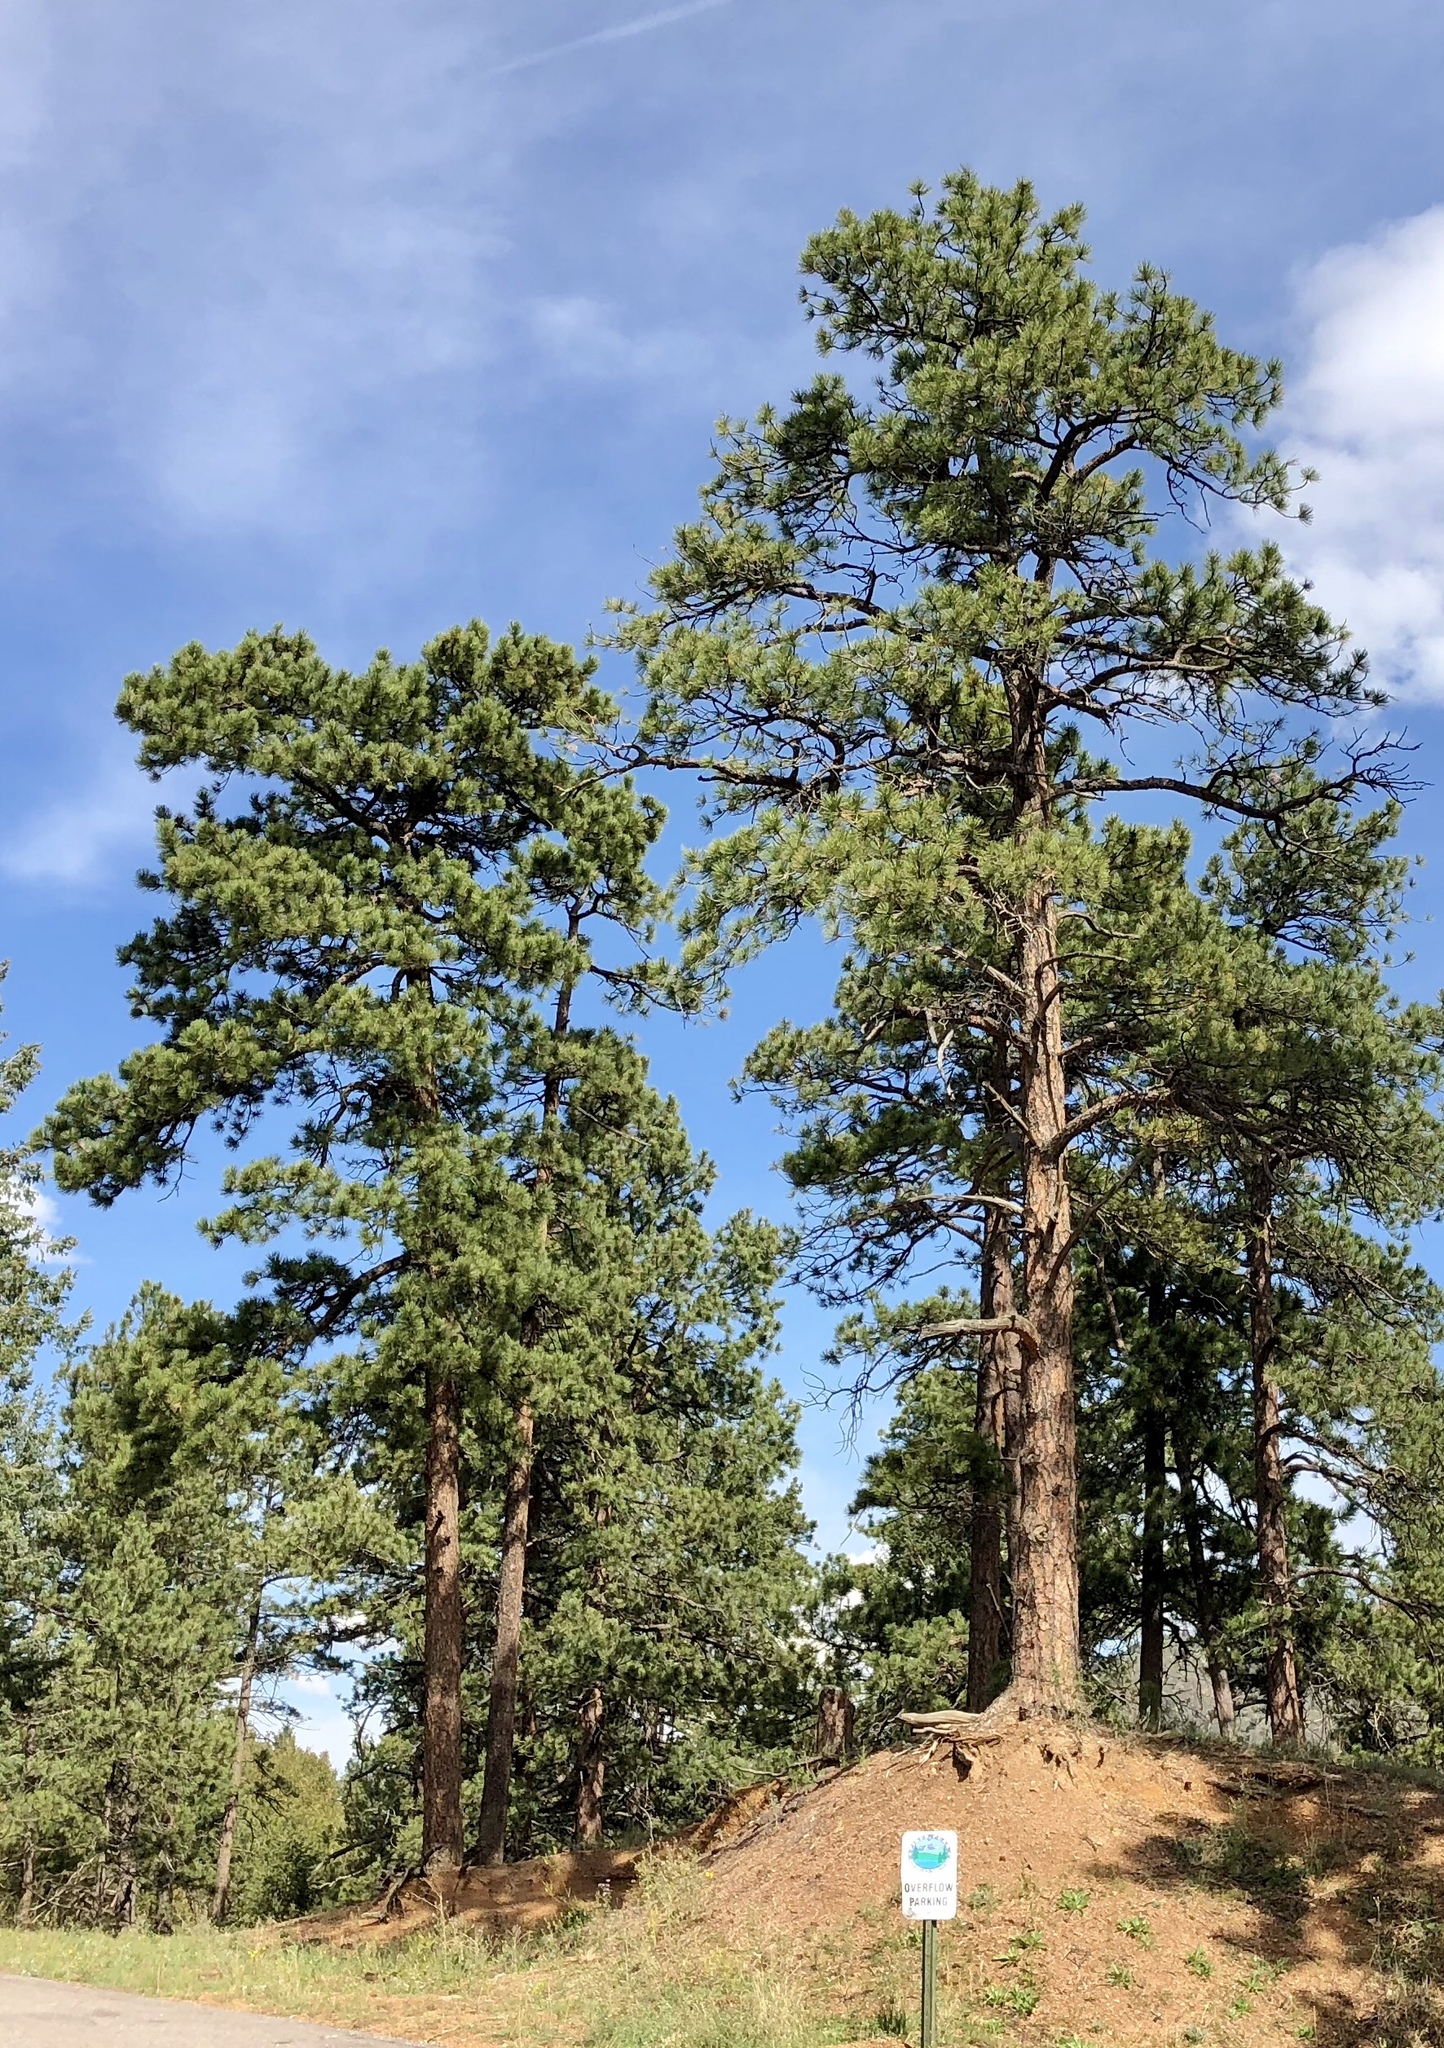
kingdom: Plantae
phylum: Tracheophyta
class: Pinopsida
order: Pinales
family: Pinaceae
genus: Pinus
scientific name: Pinus ponderosa
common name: Western yellow-pine
